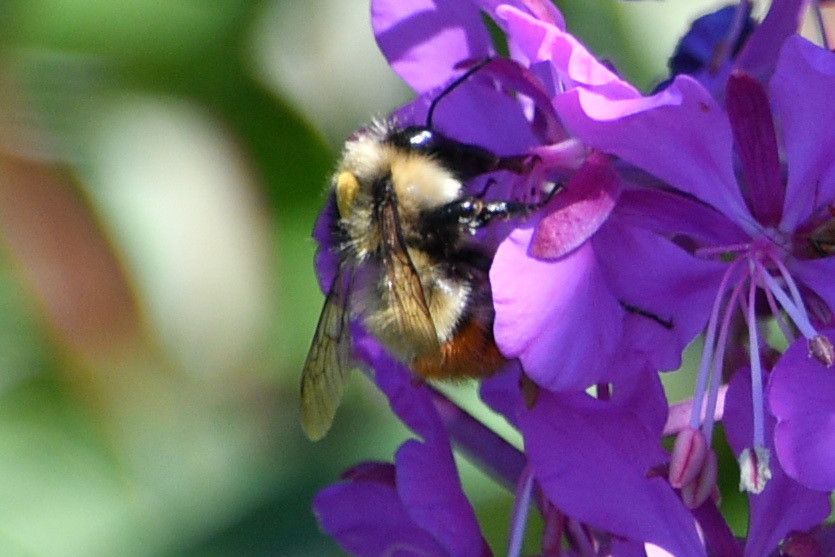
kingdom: Animalia
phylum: Arthropoda
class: Insecta
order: Hymenoptera
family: Apidae
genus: Bombus
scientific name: Bombus flavifrons
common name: Yellow head bumble bee
